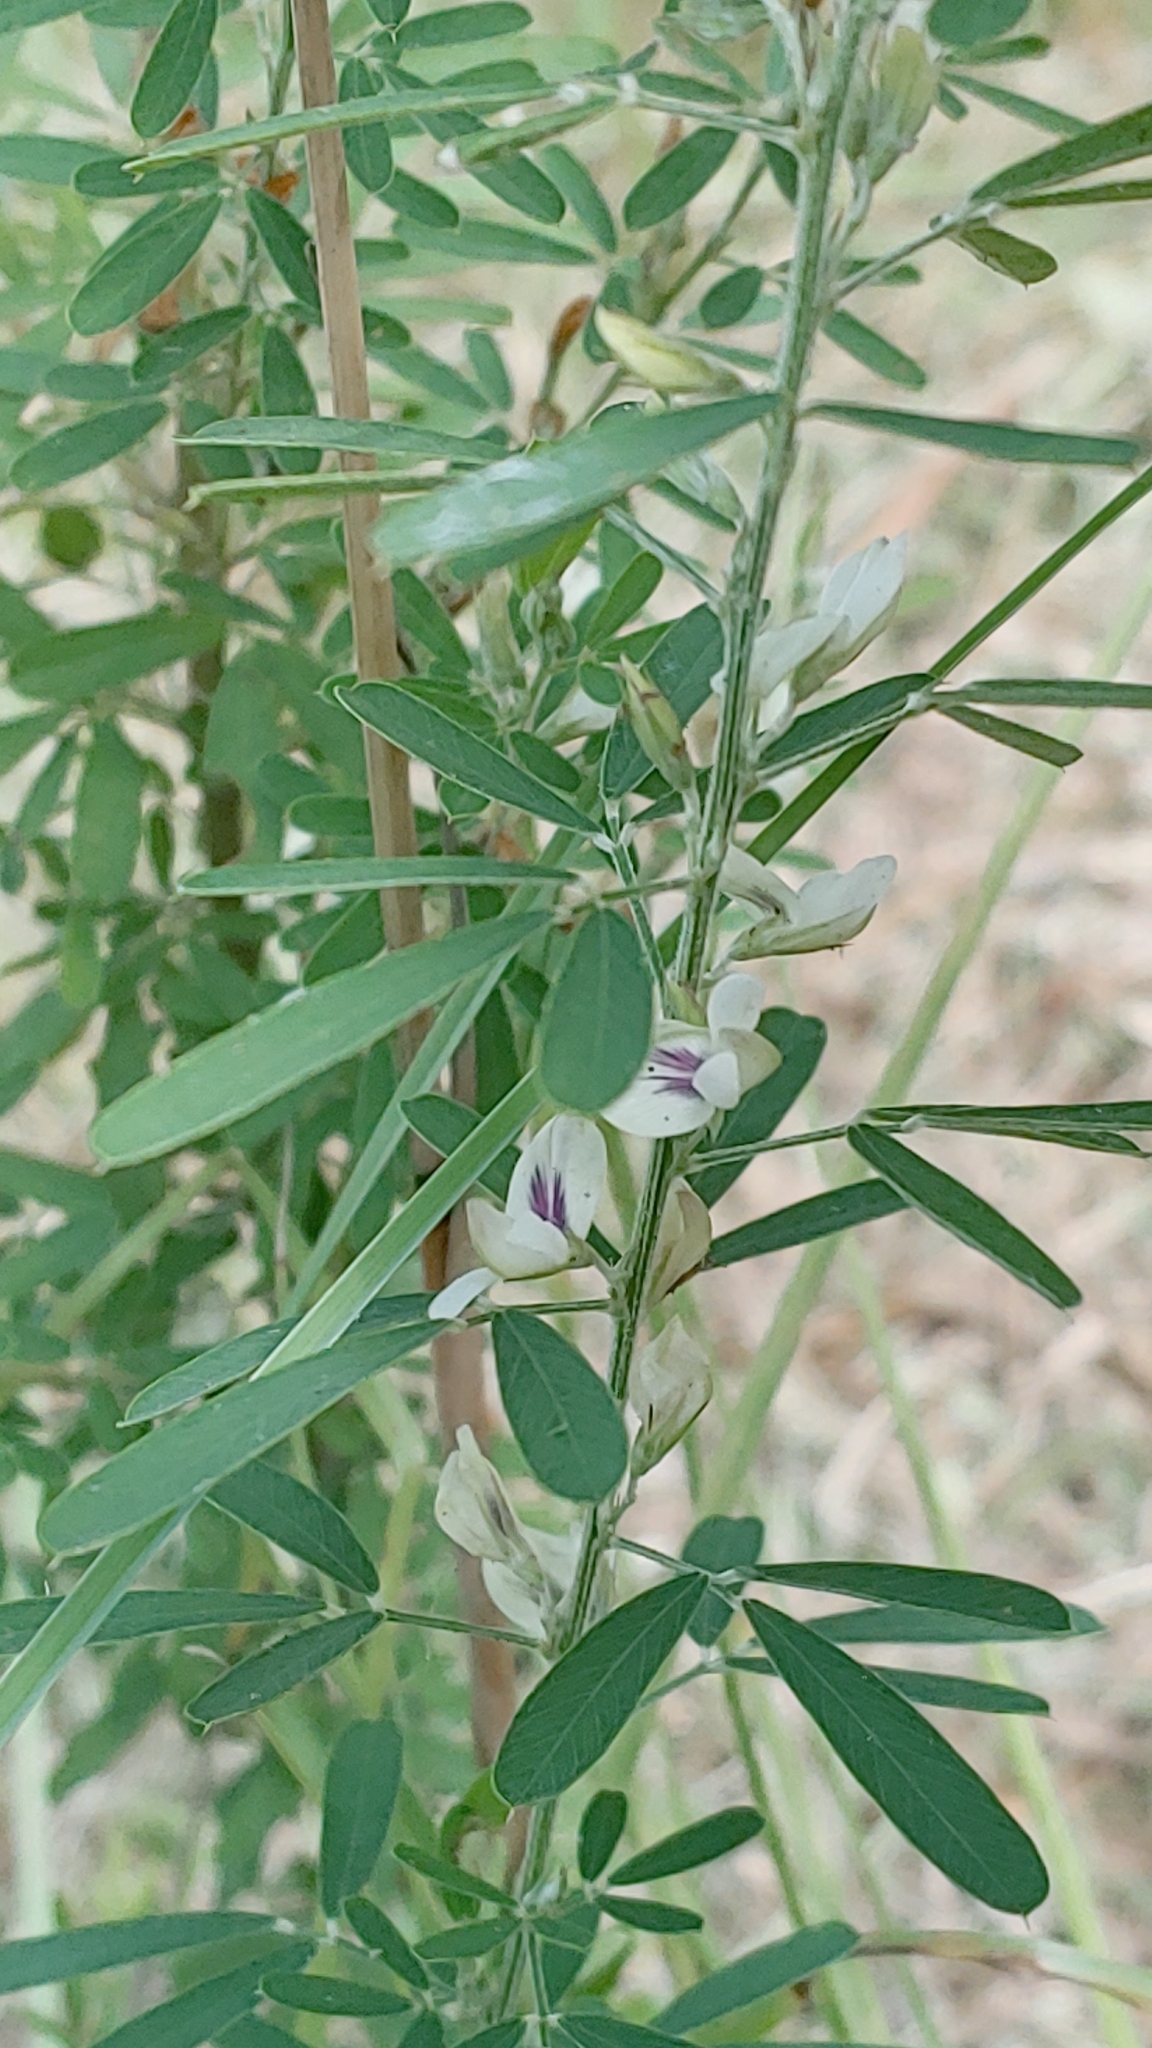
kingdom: Plantae
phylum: Tracheophyta
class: Magnoliopsida
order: Fabales
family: Fabaceae
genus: Lespedeza
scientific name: Lespedeza cuneata
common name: Chinese bush-clover
